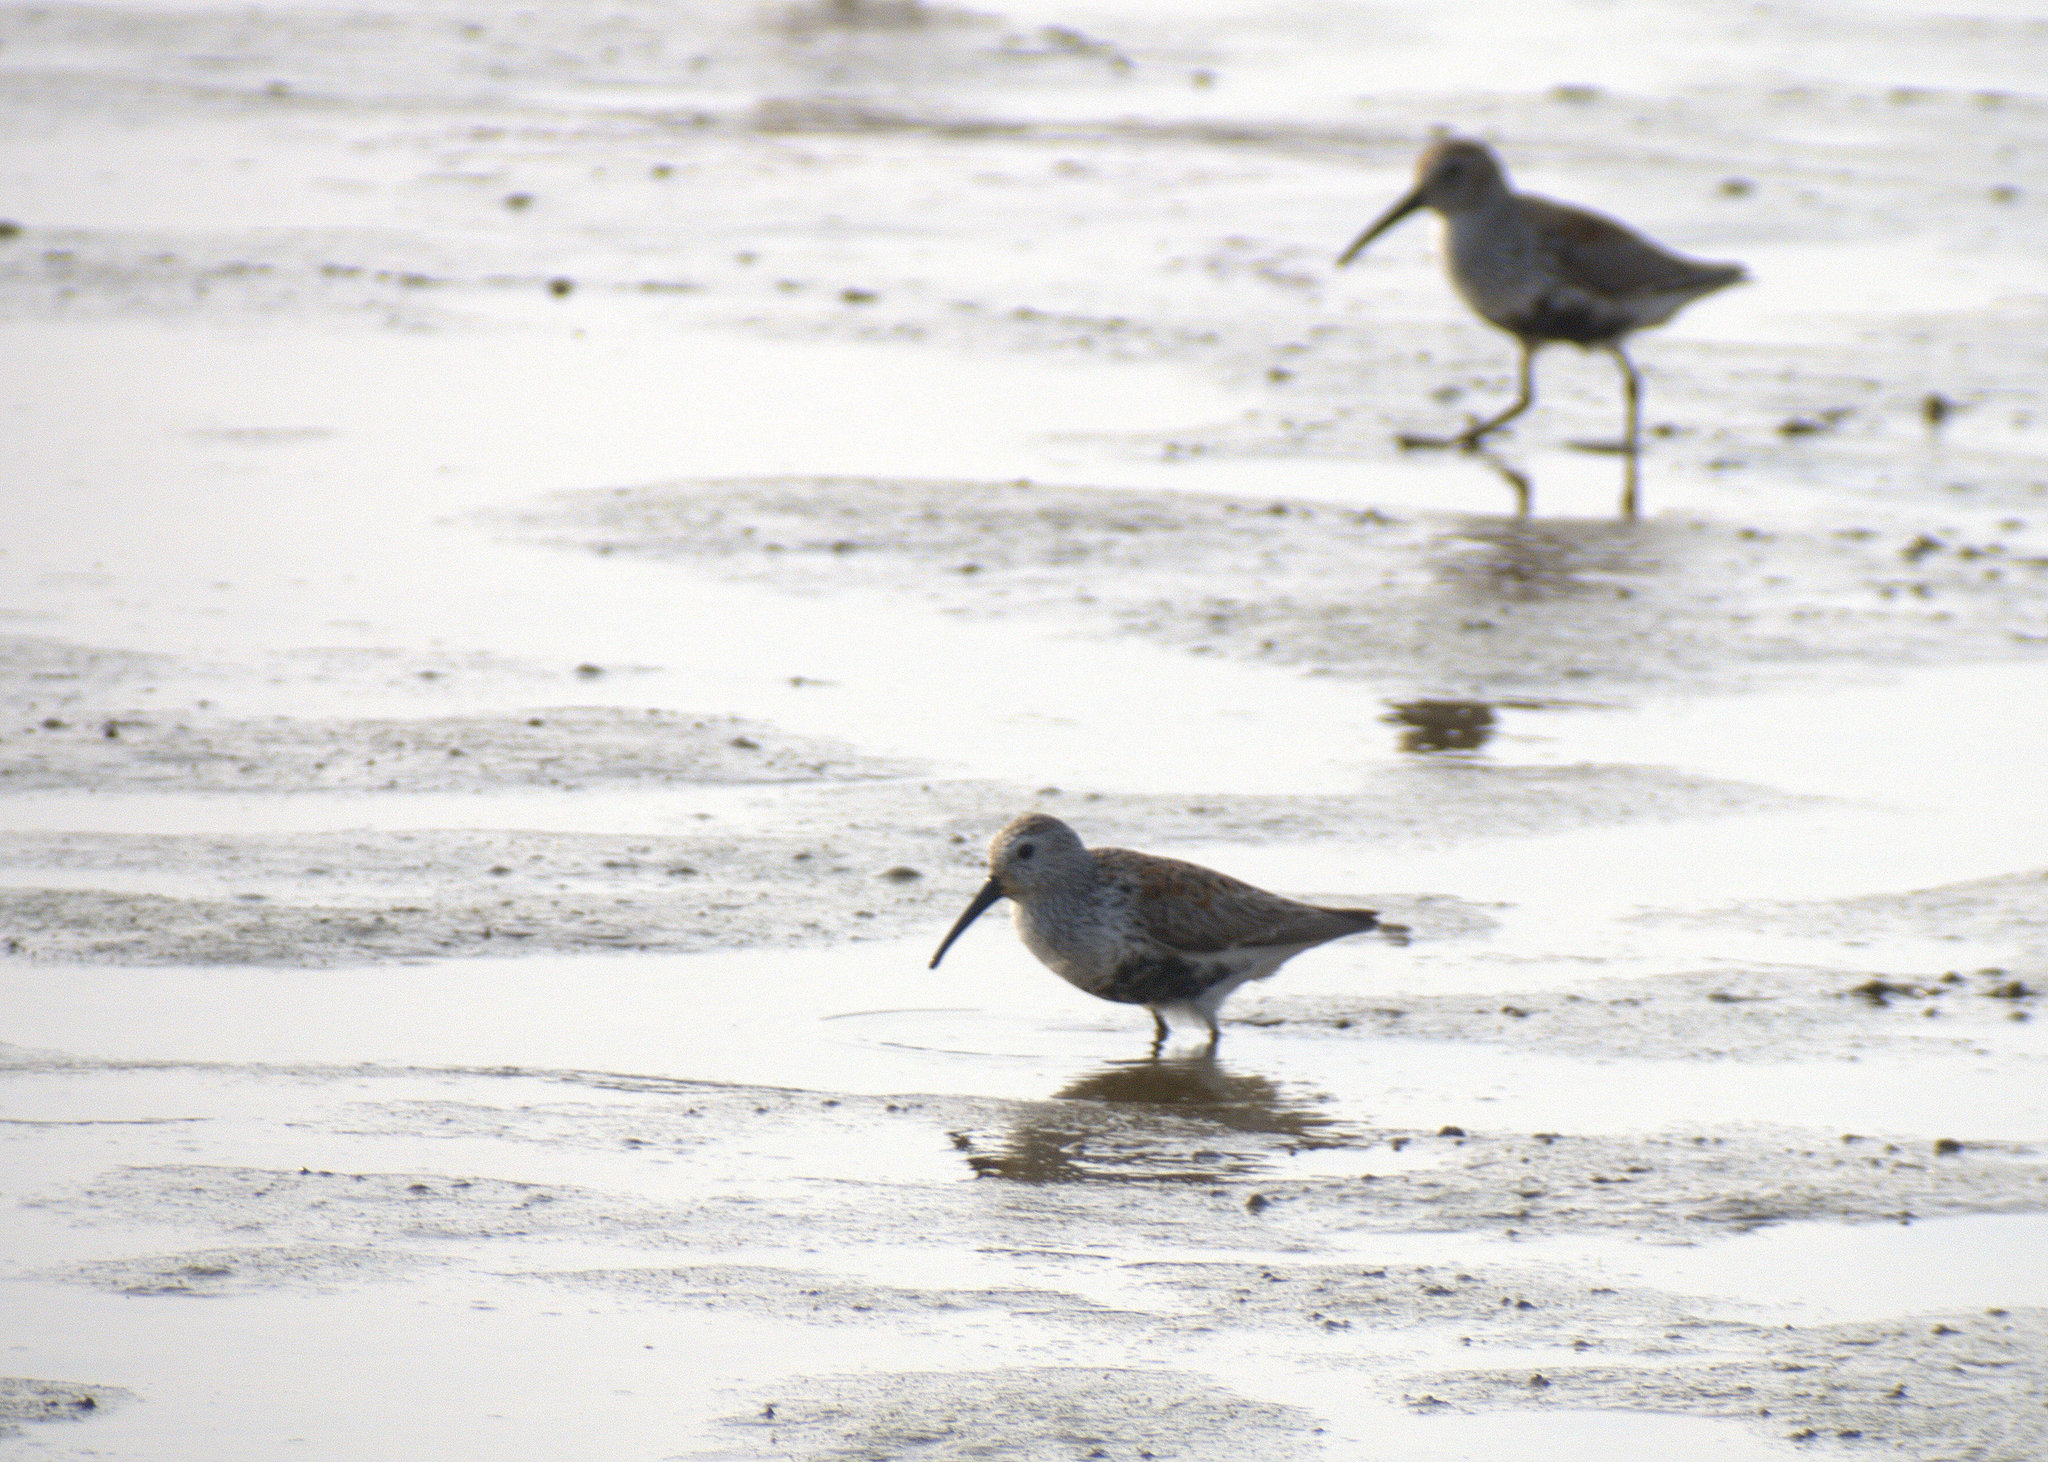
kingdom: Animalia
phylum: Chordata
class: Aves
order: Charadriiformes
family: Scolopacidae
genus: Calidris
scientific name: Calidris alpina
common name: Dunlin
